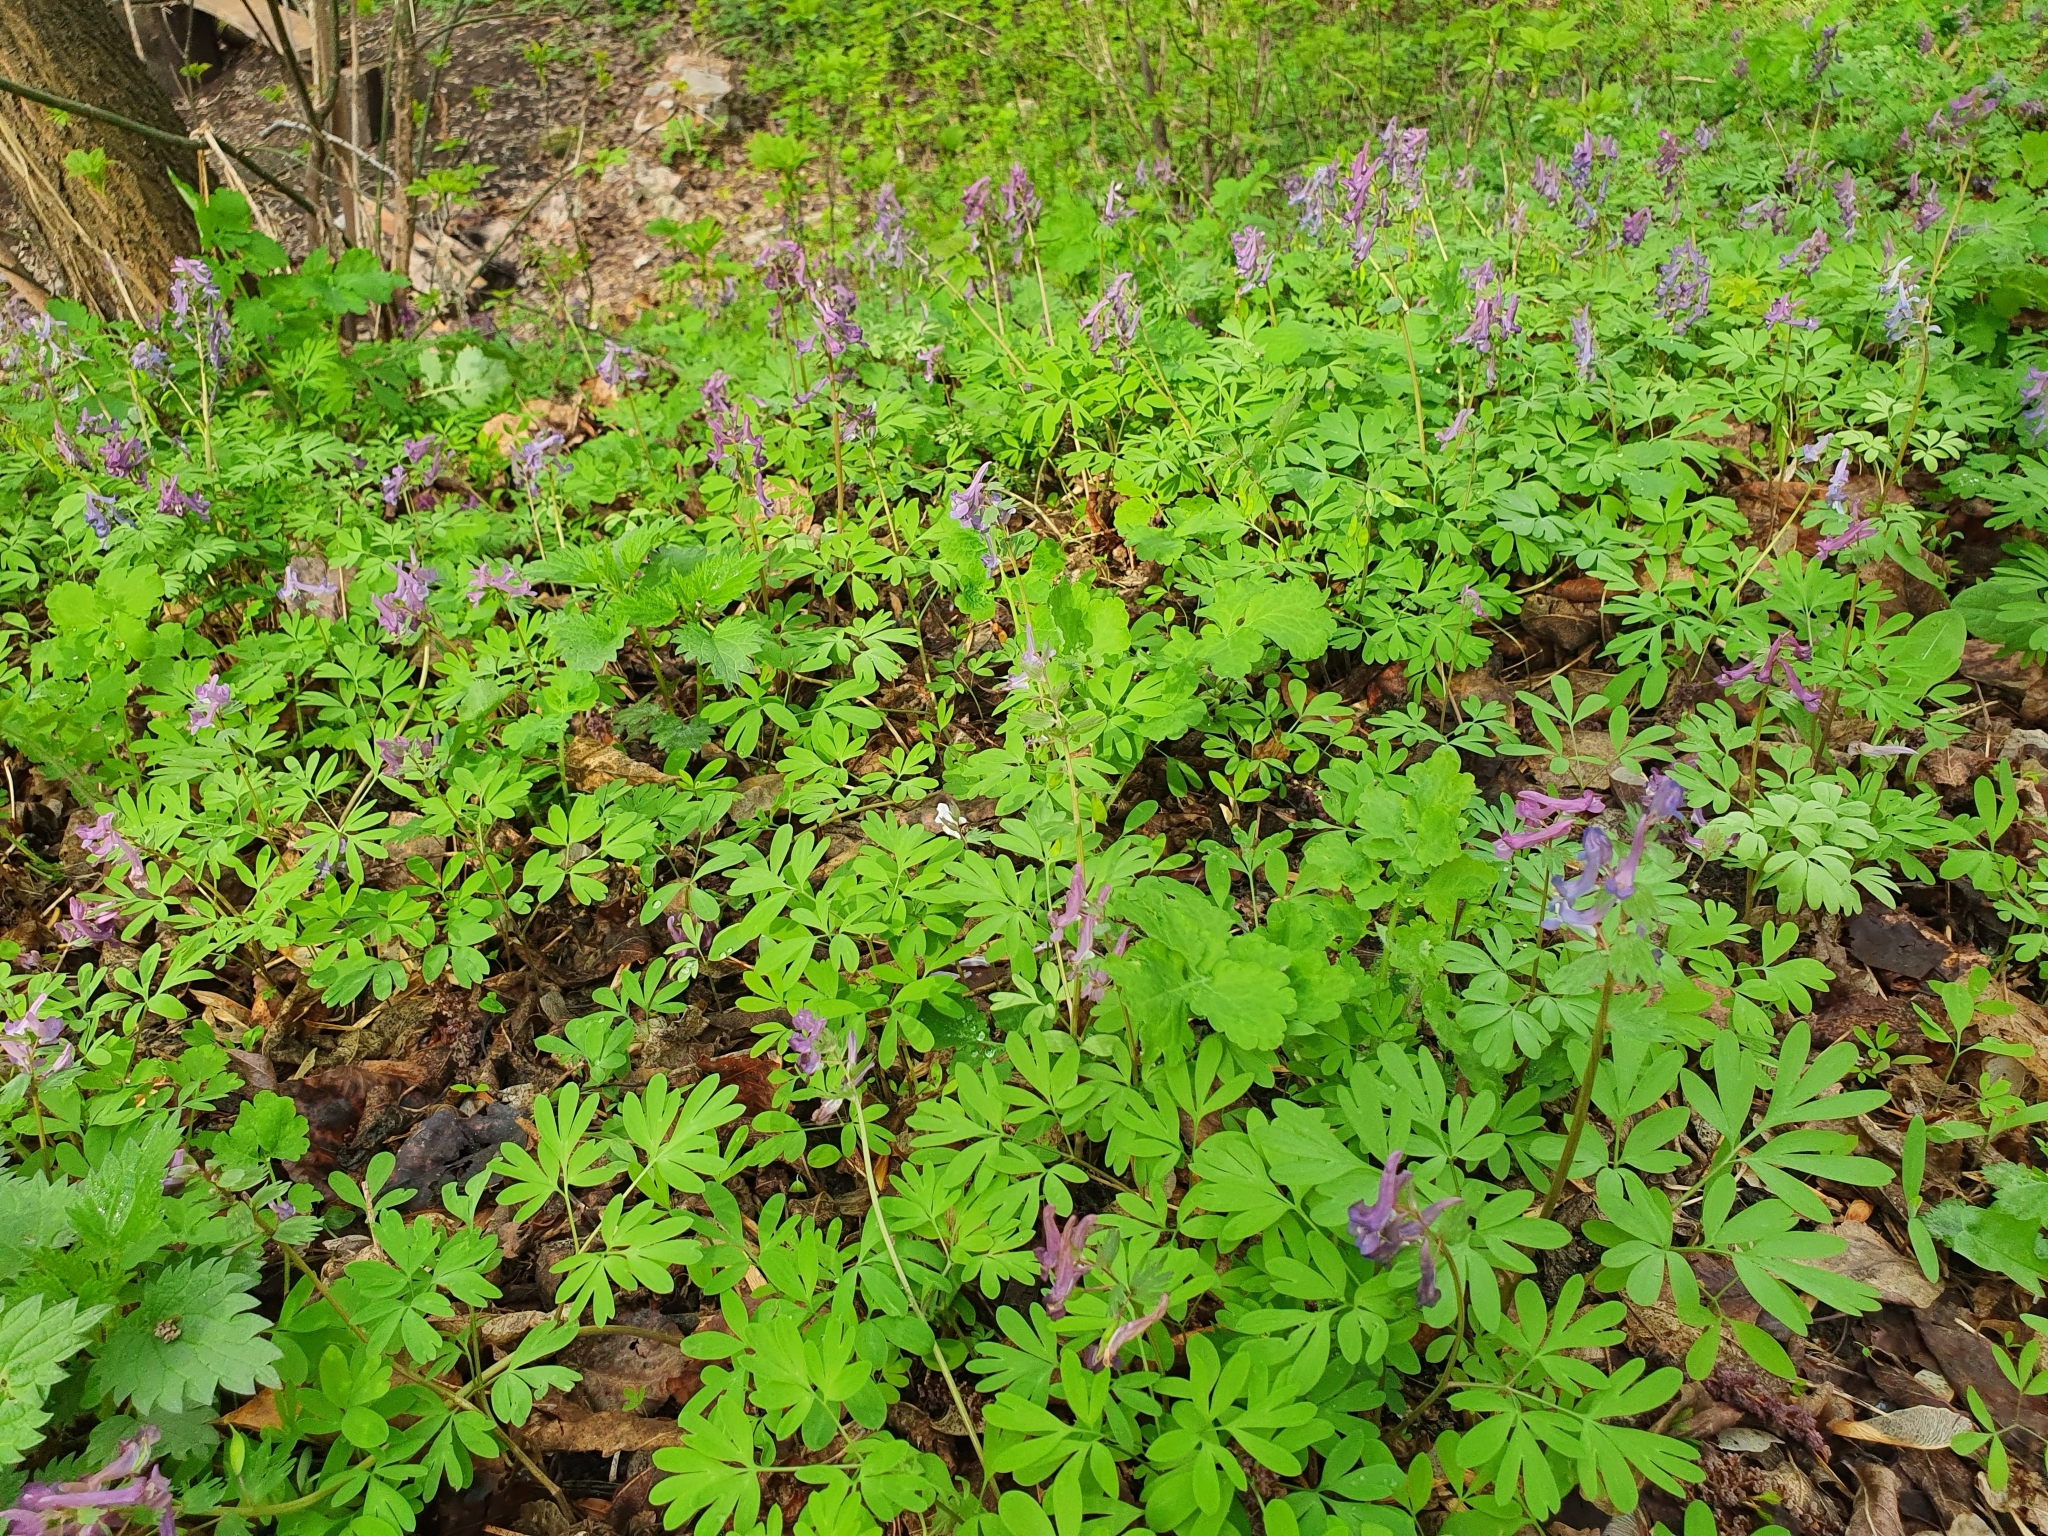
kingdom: Plantae
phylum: Tracheophyta
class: Magnoliopsida
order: Ranunculales
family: Papaveraceae
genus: Corydalis
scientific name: Corydalis solida
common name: Bird-in-a-bush
